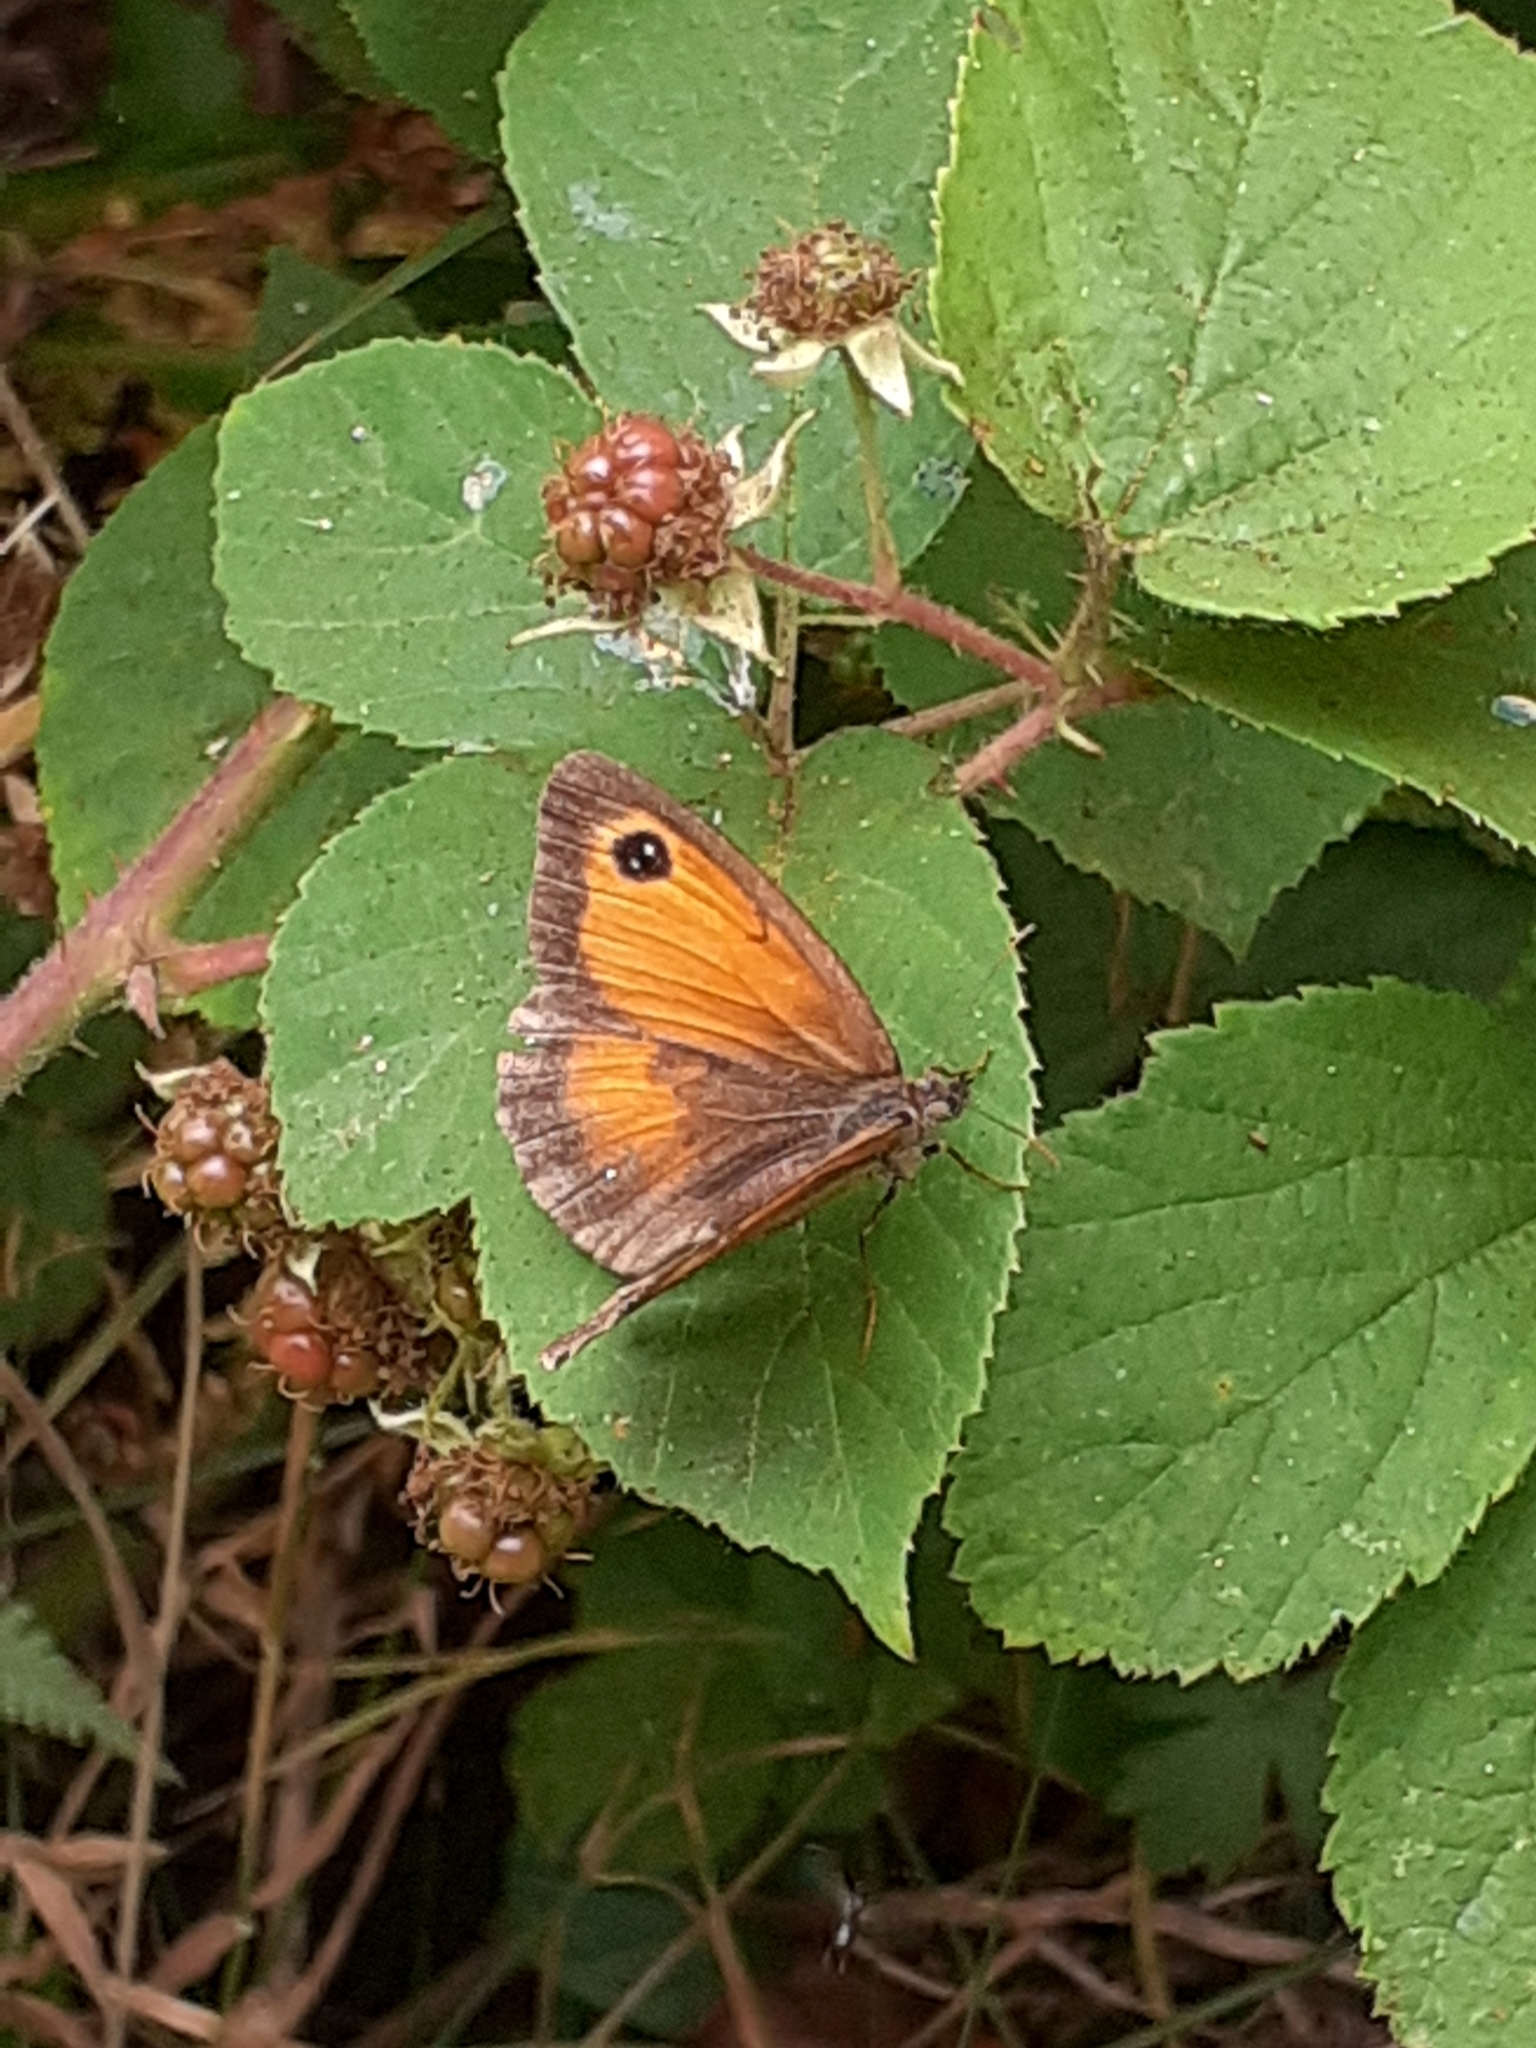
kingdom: Animalia
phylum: Arthropoda
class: Insecta
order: Lepidoptera
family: Nymphalidae
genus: Pyronia
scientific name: Pyronia tithonus
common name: Gatekeeper
